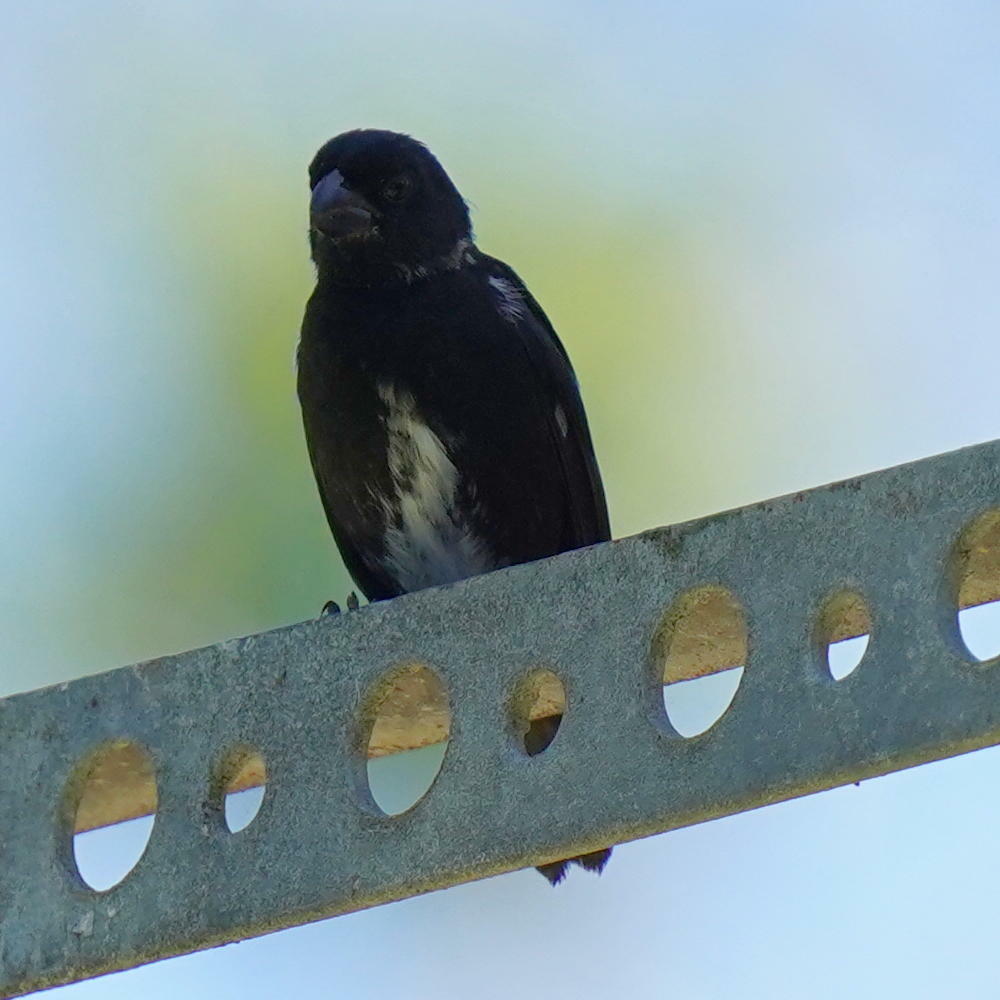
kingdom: Animalia
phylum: Chordata
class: Aves
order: Passeriformes
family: Thraupidae
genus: Sporophila
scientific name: Sporophila corvina
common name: Variable seedeater
